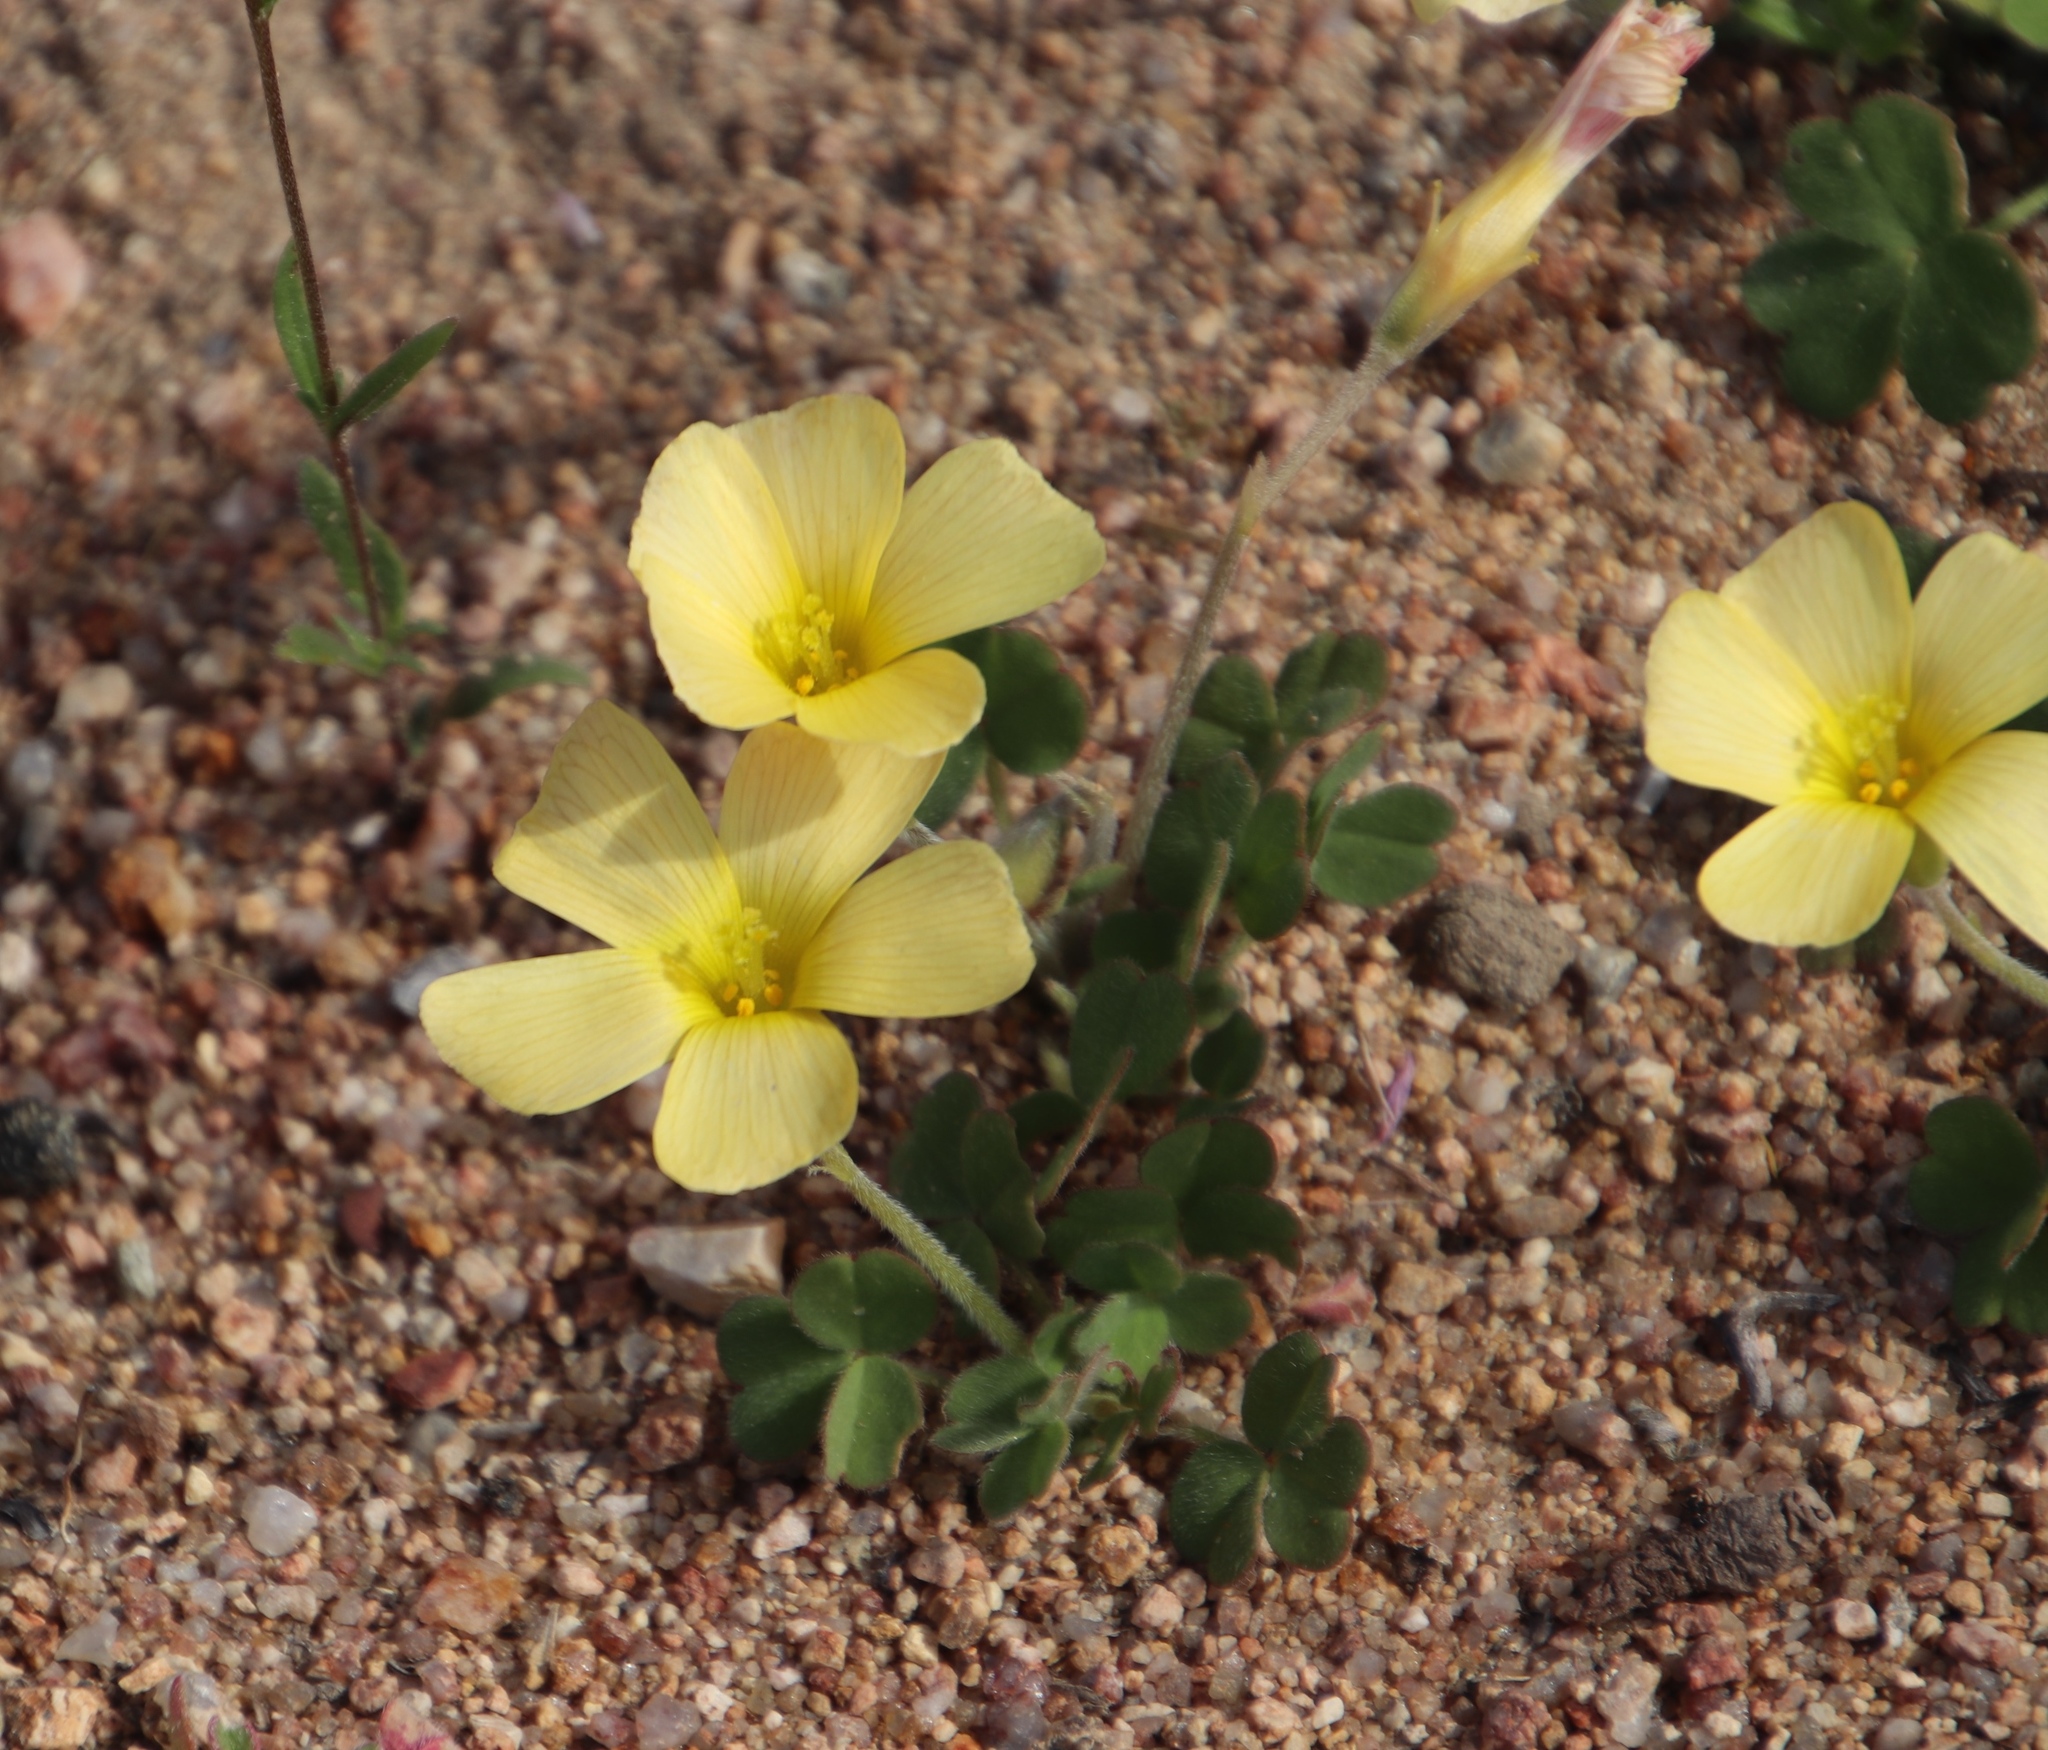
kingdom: Plantae
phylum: Tracheophyta
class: Magnoliopsida
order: Oxalidales
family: Oxalidaceae
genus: Oxalis
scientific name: Oxalis obtusa
